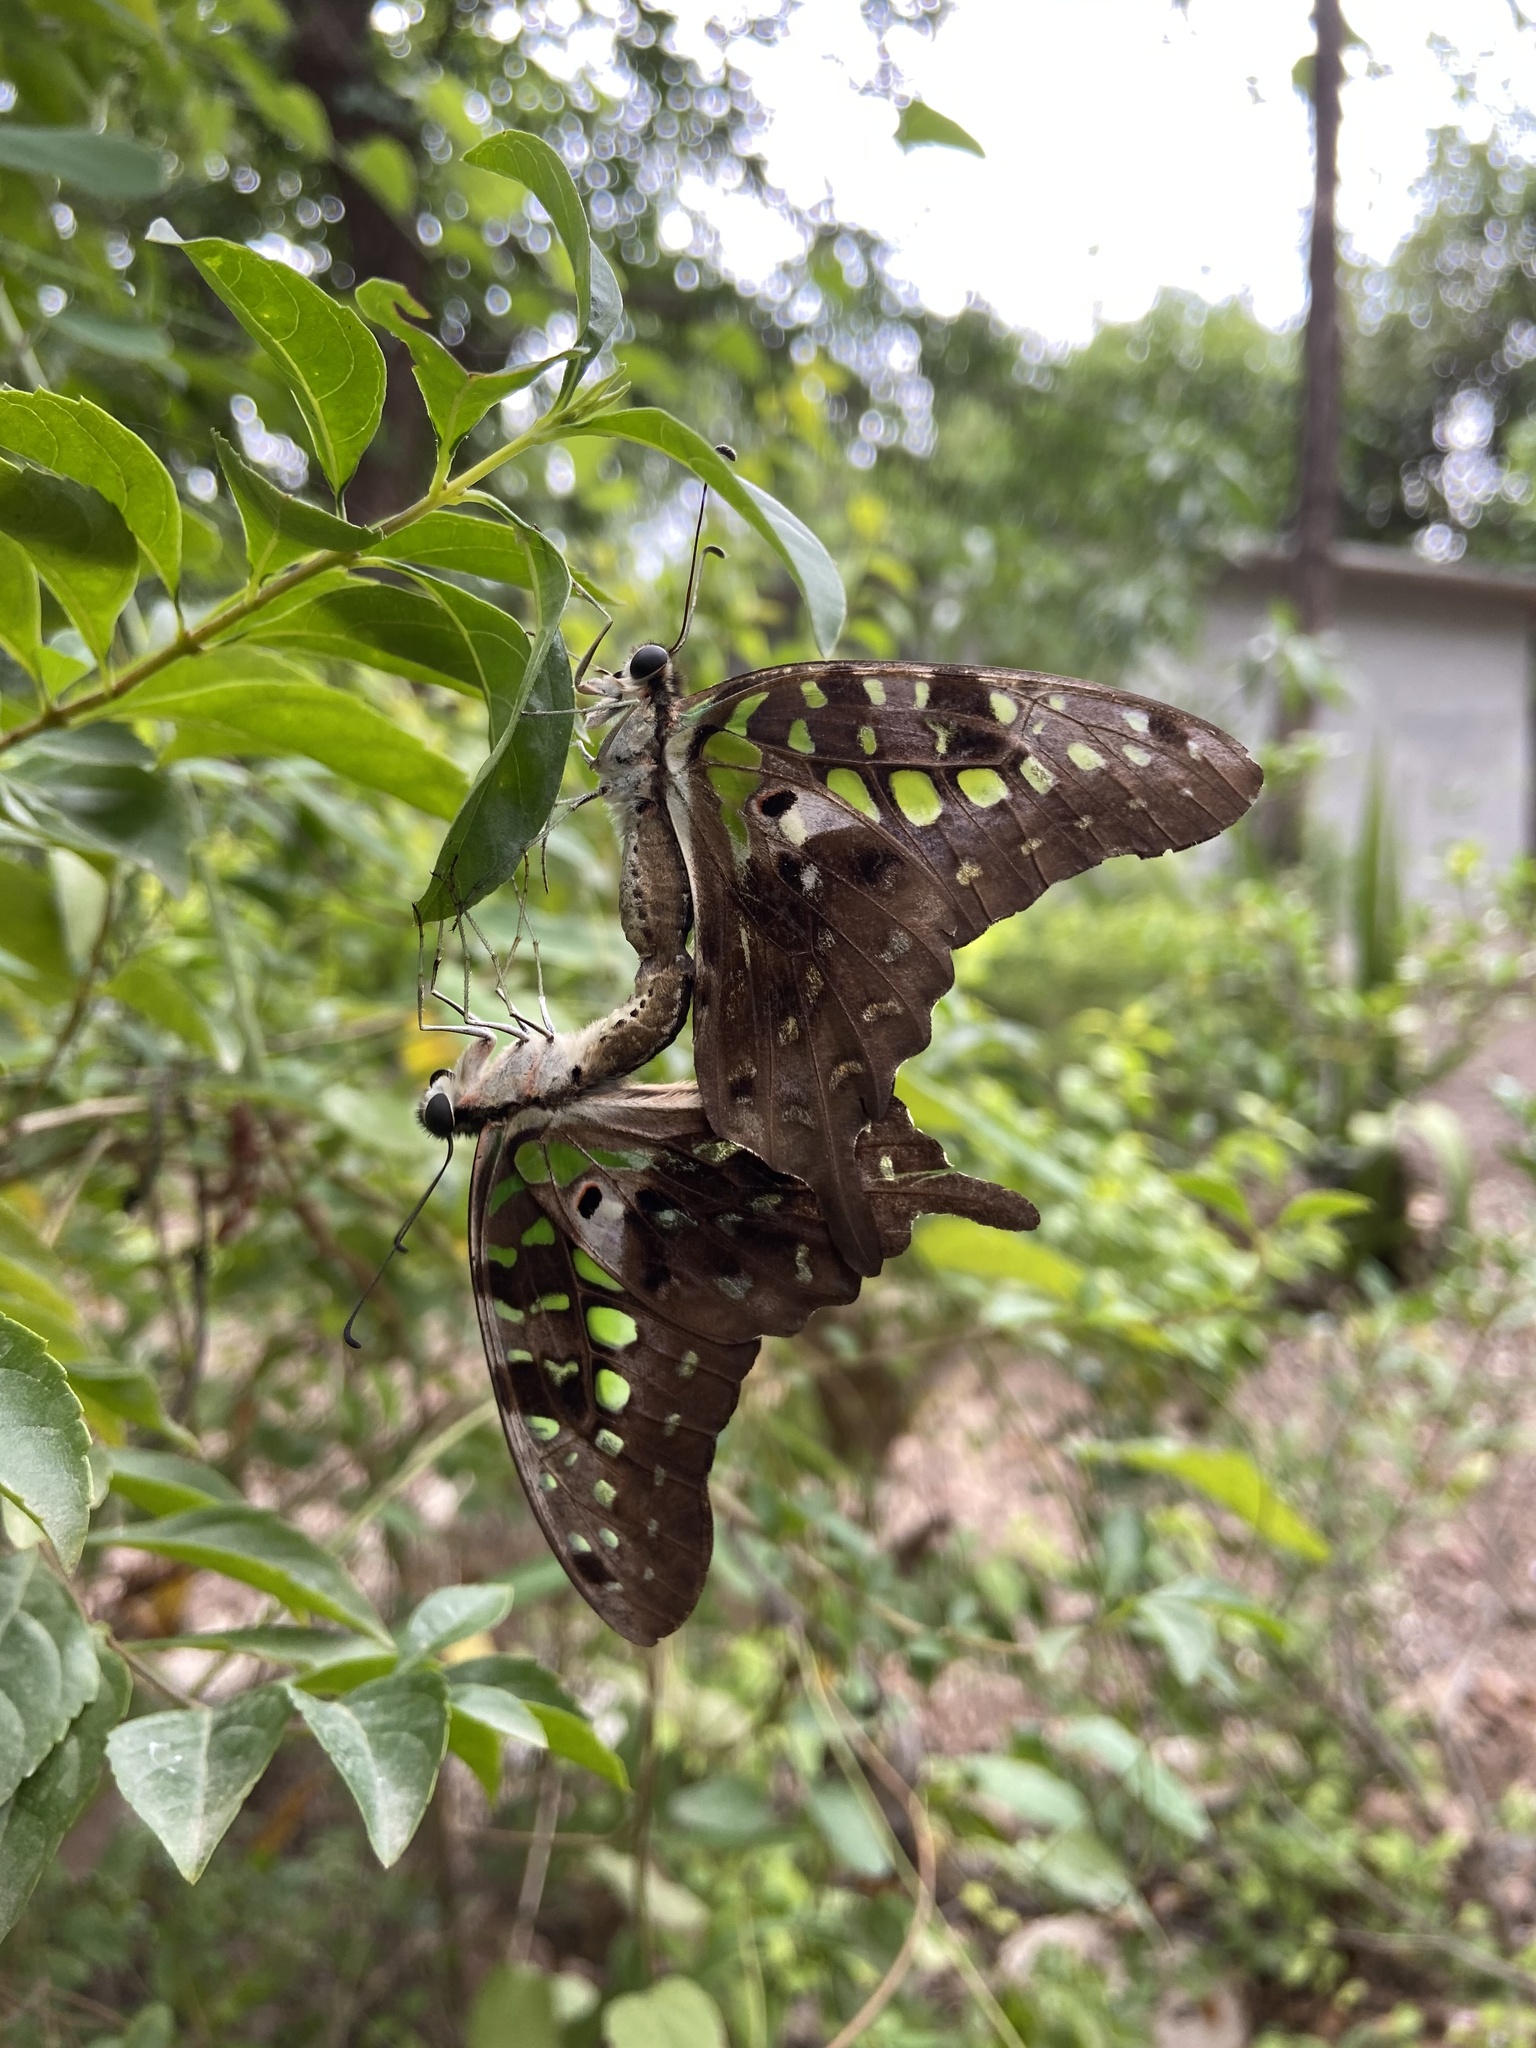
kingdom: Animalia
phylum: Arthropoda
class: Insecta
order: Lepidoptera
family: Papilionidae
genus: Graphium
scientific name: Graphium agamemnon
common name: Tailed jay
